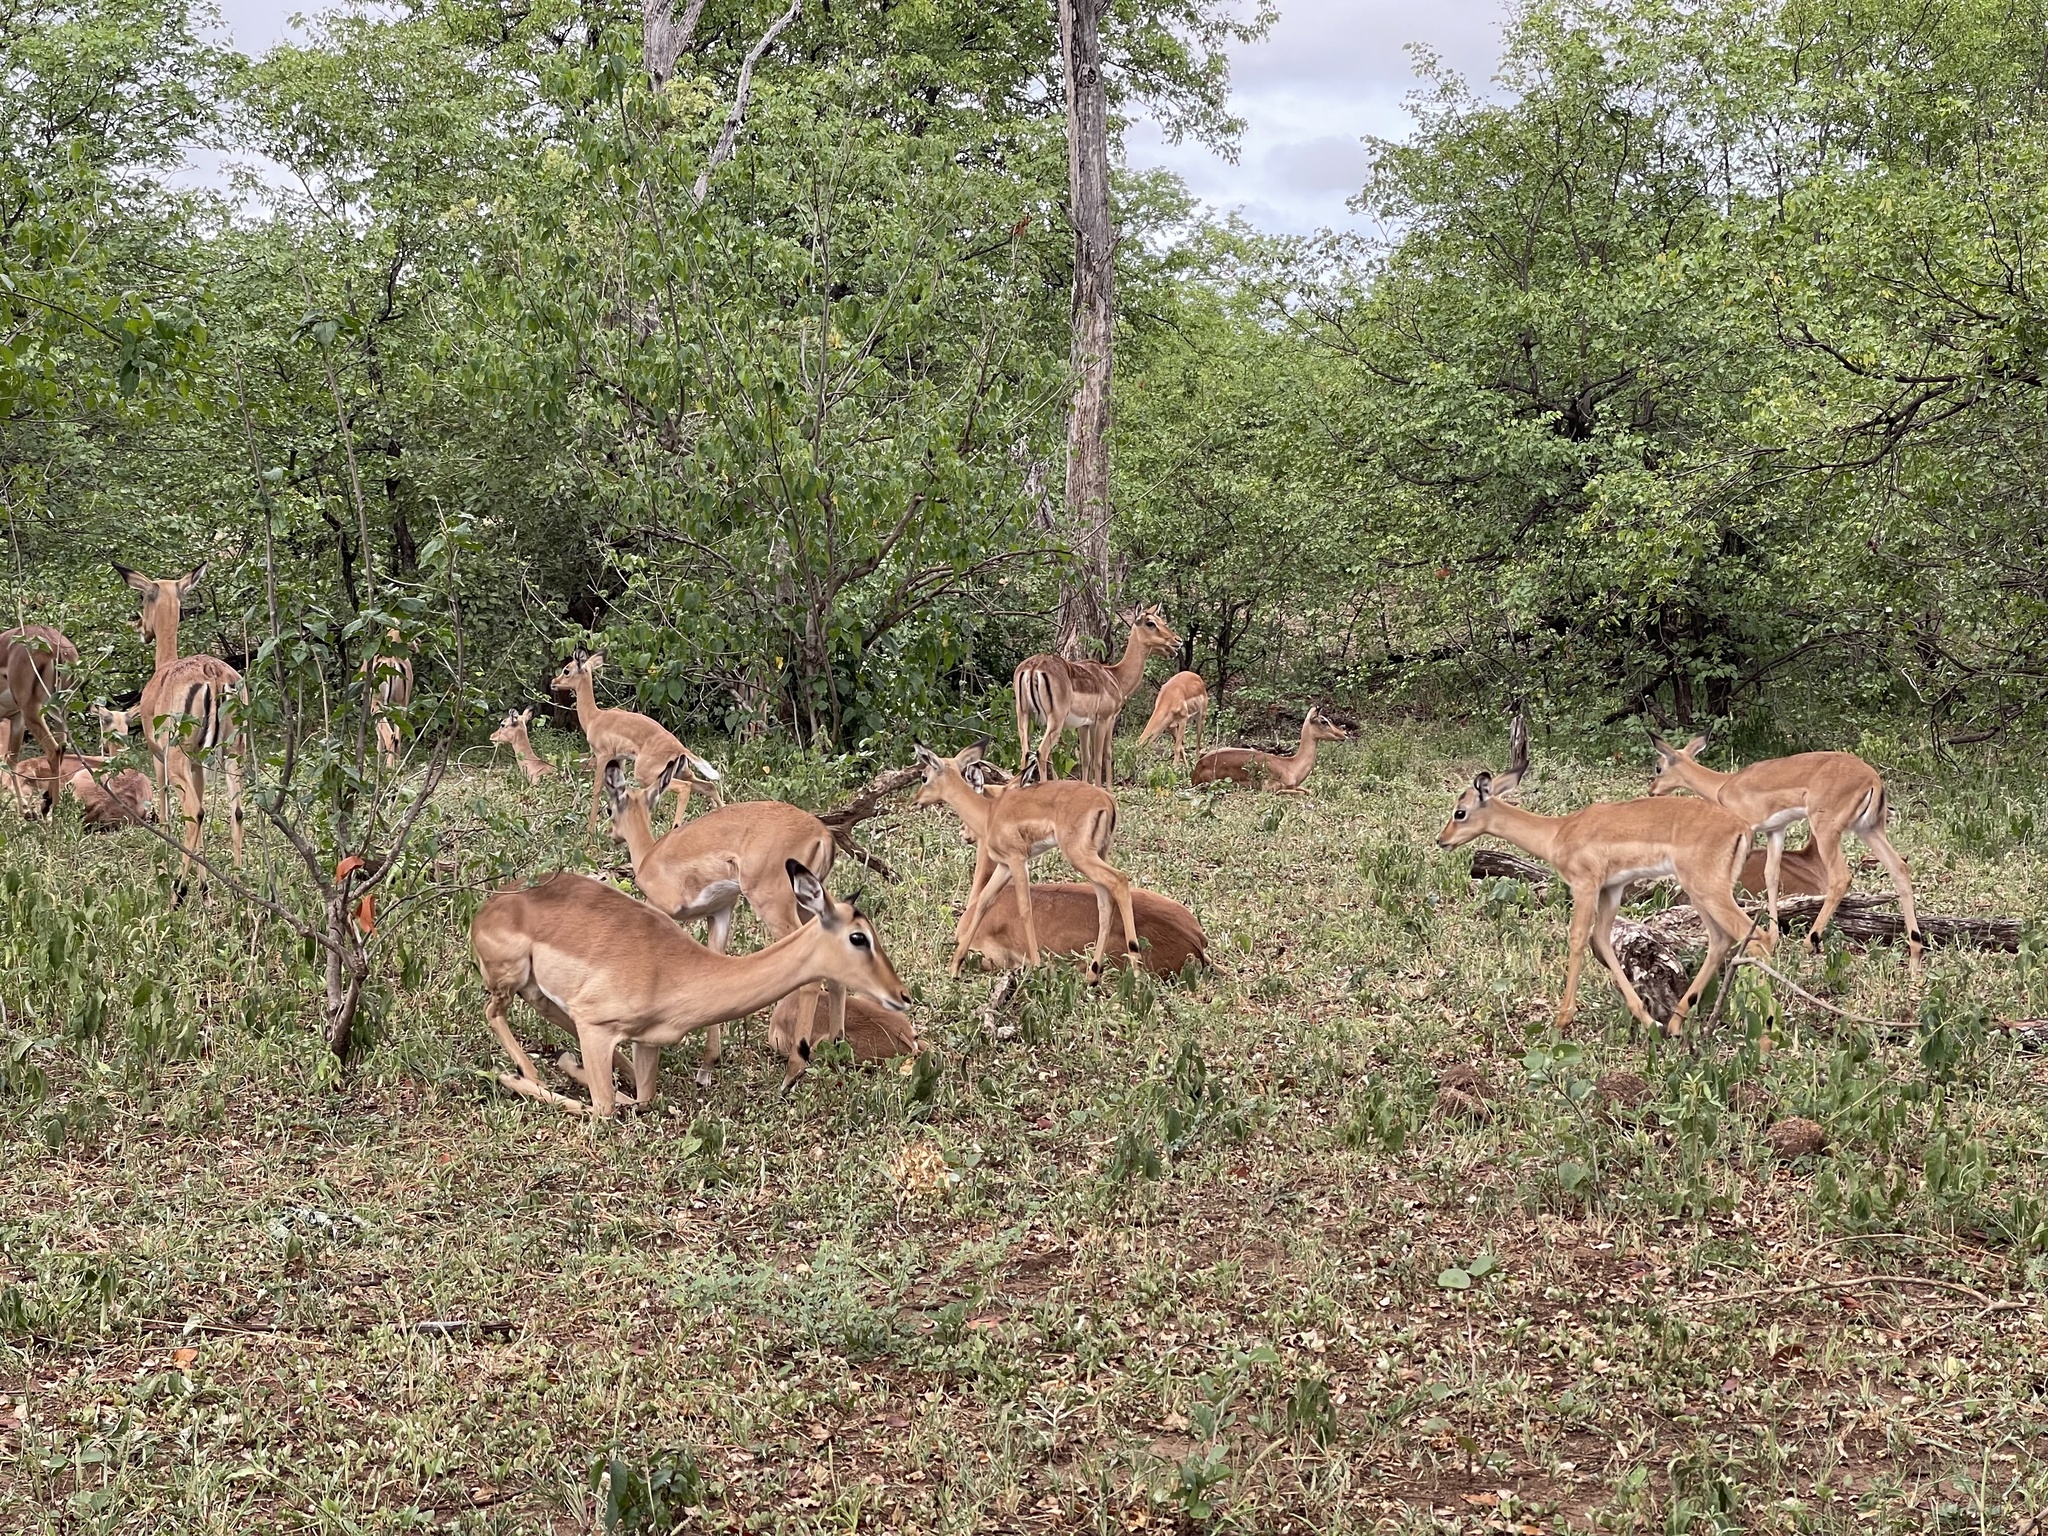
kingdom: Animalia
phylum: Chordata
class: Mammalia
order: Artiodactyla
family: Bovidae
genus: Aepyceros
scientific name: Aepyceros melampus
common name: Impala
